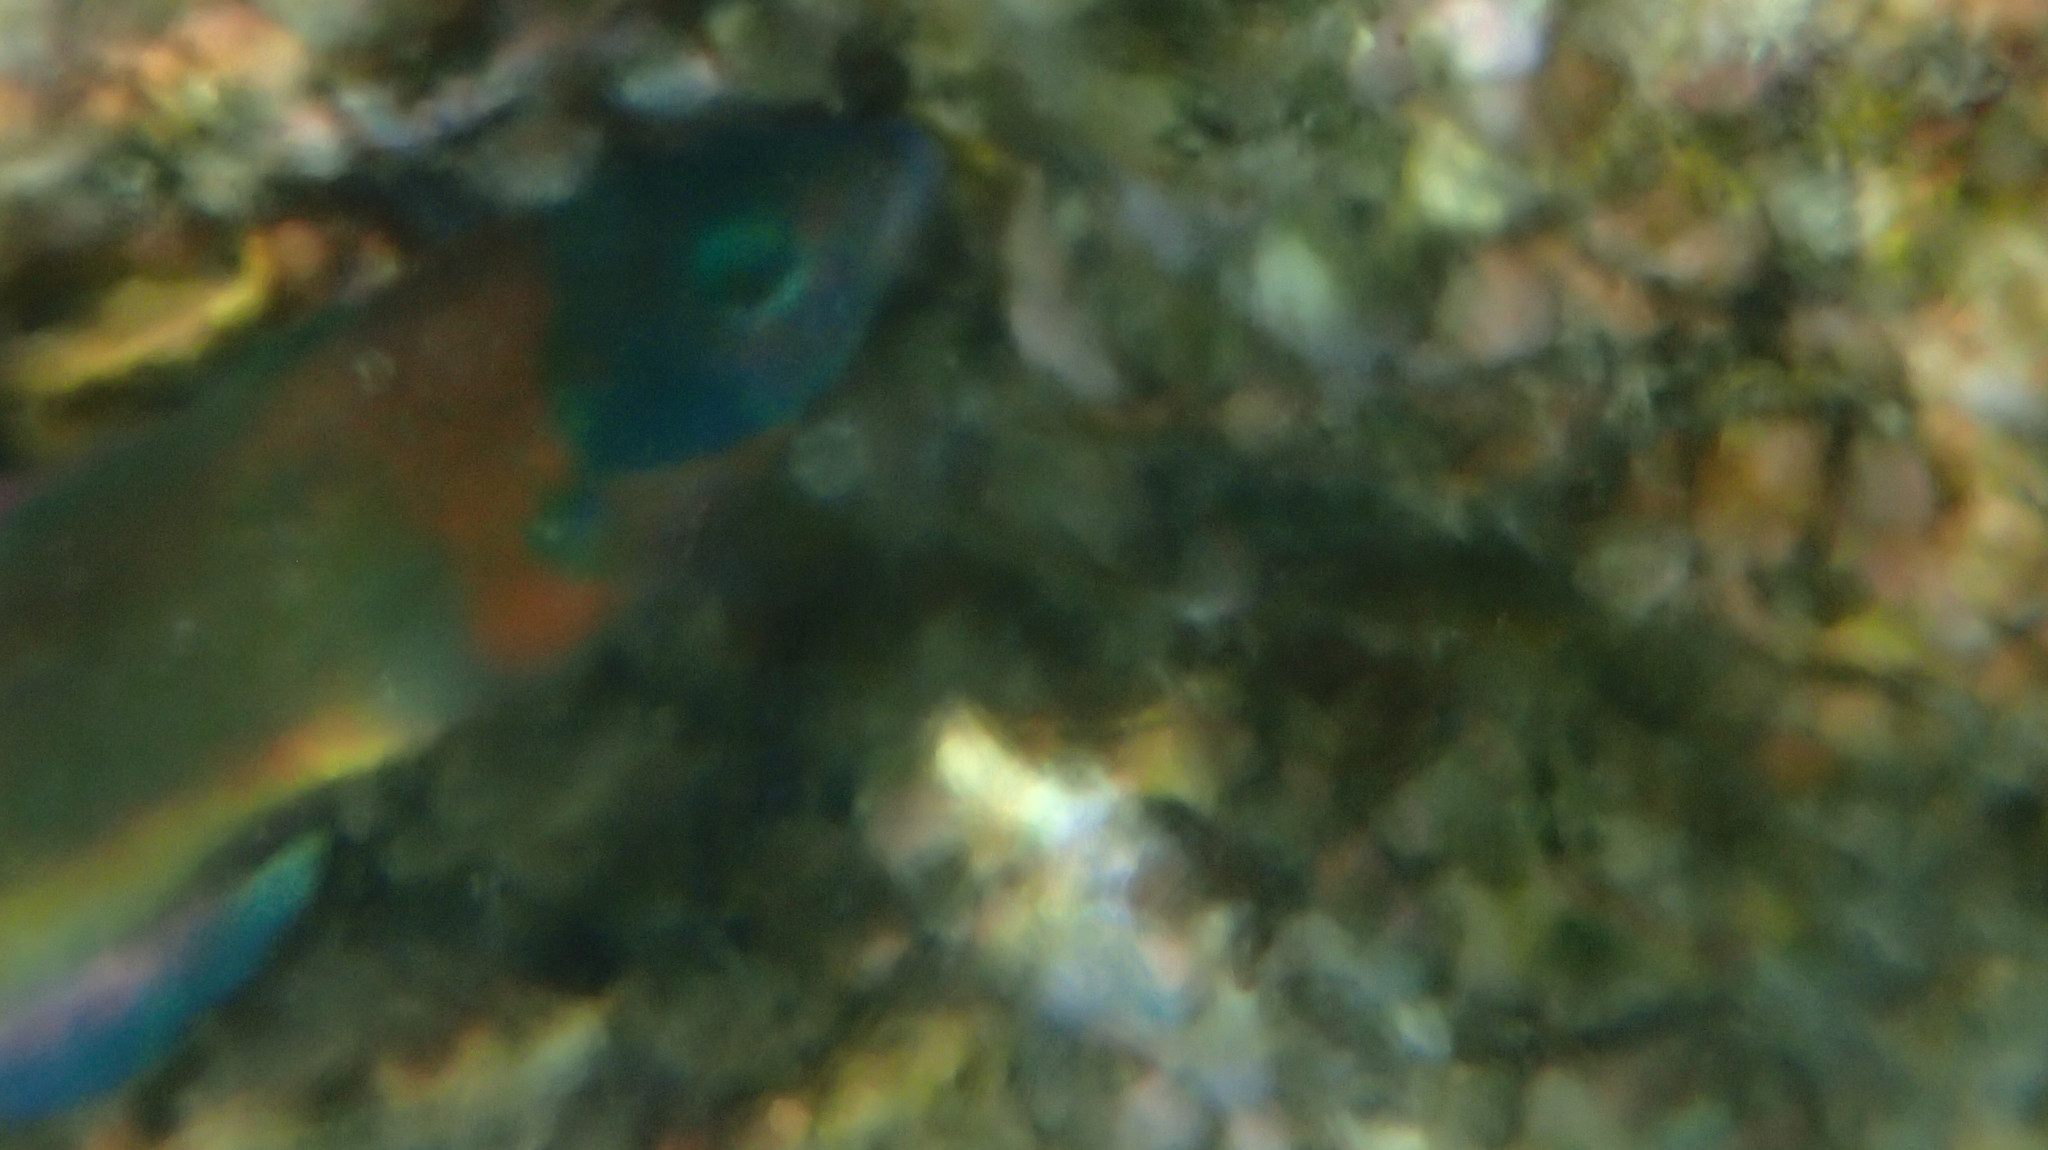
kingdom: Animalia
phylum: Chordata
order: Perciformes
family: Labridae
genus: Thalassoma
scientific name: Thalassoma duperrey
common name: Saddle wrasse
